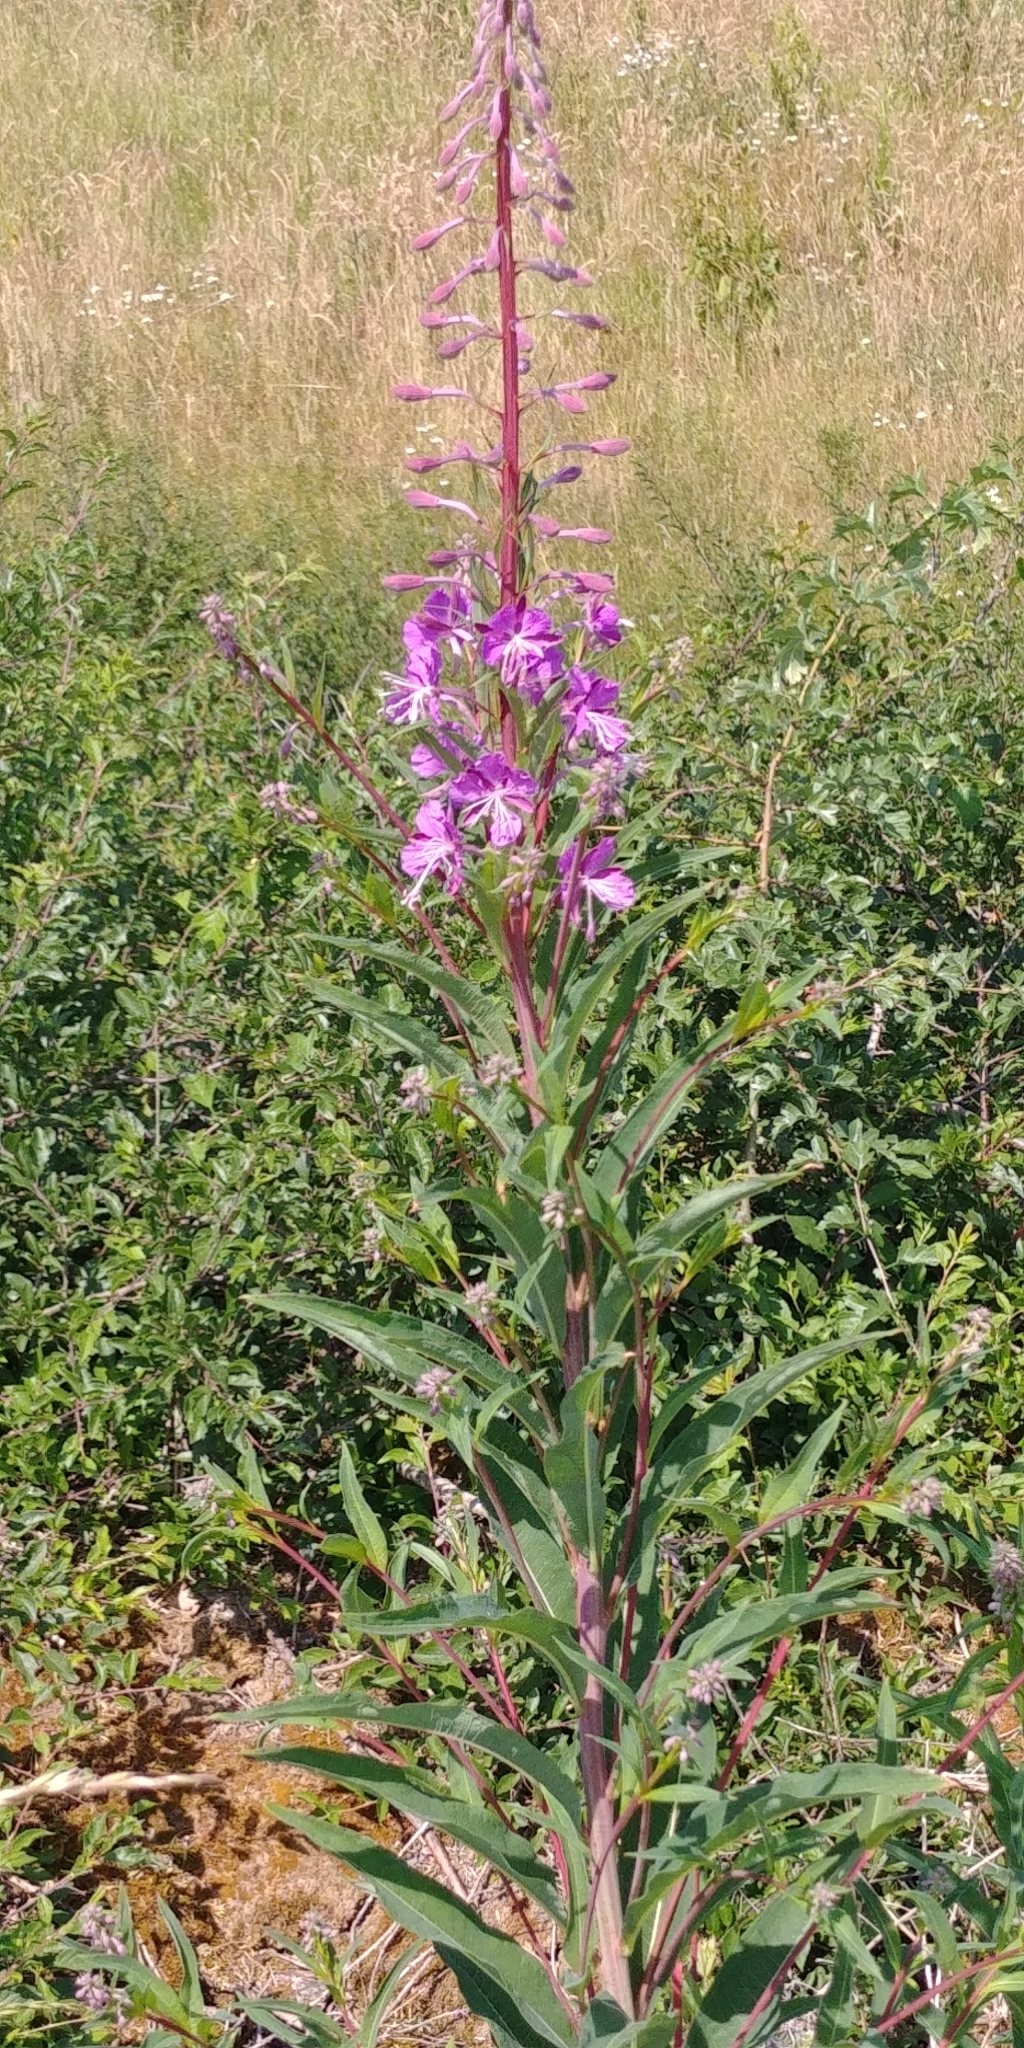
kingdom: Plantae
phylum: Tracheophyta
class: Magnoliopsida
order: Myrtales
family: Onagraceae
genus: Chamaenerion
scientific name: Chamaenerion angustifolium
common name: Fireweed
